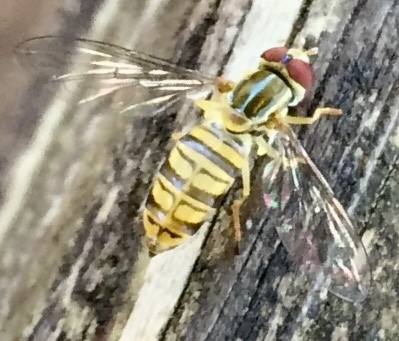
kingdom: Animalia
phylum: Arthropoda
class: Insecta
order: Diptera
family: Syrphidae
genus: Toxomerus
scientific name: Toxomerus politus
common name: Maize calligrapher
